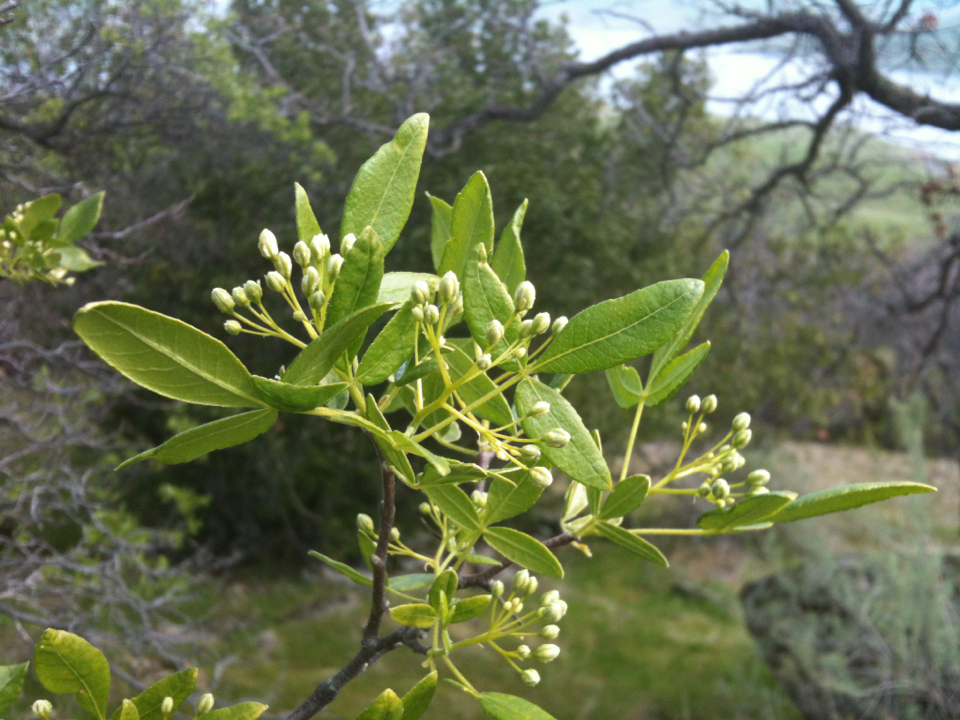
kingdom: Plantae
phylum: Tracheophyta
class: Magnoliopsida
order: Sapindales
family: Rutaceae
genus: Ptelea
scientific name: Ptelea crenulata
